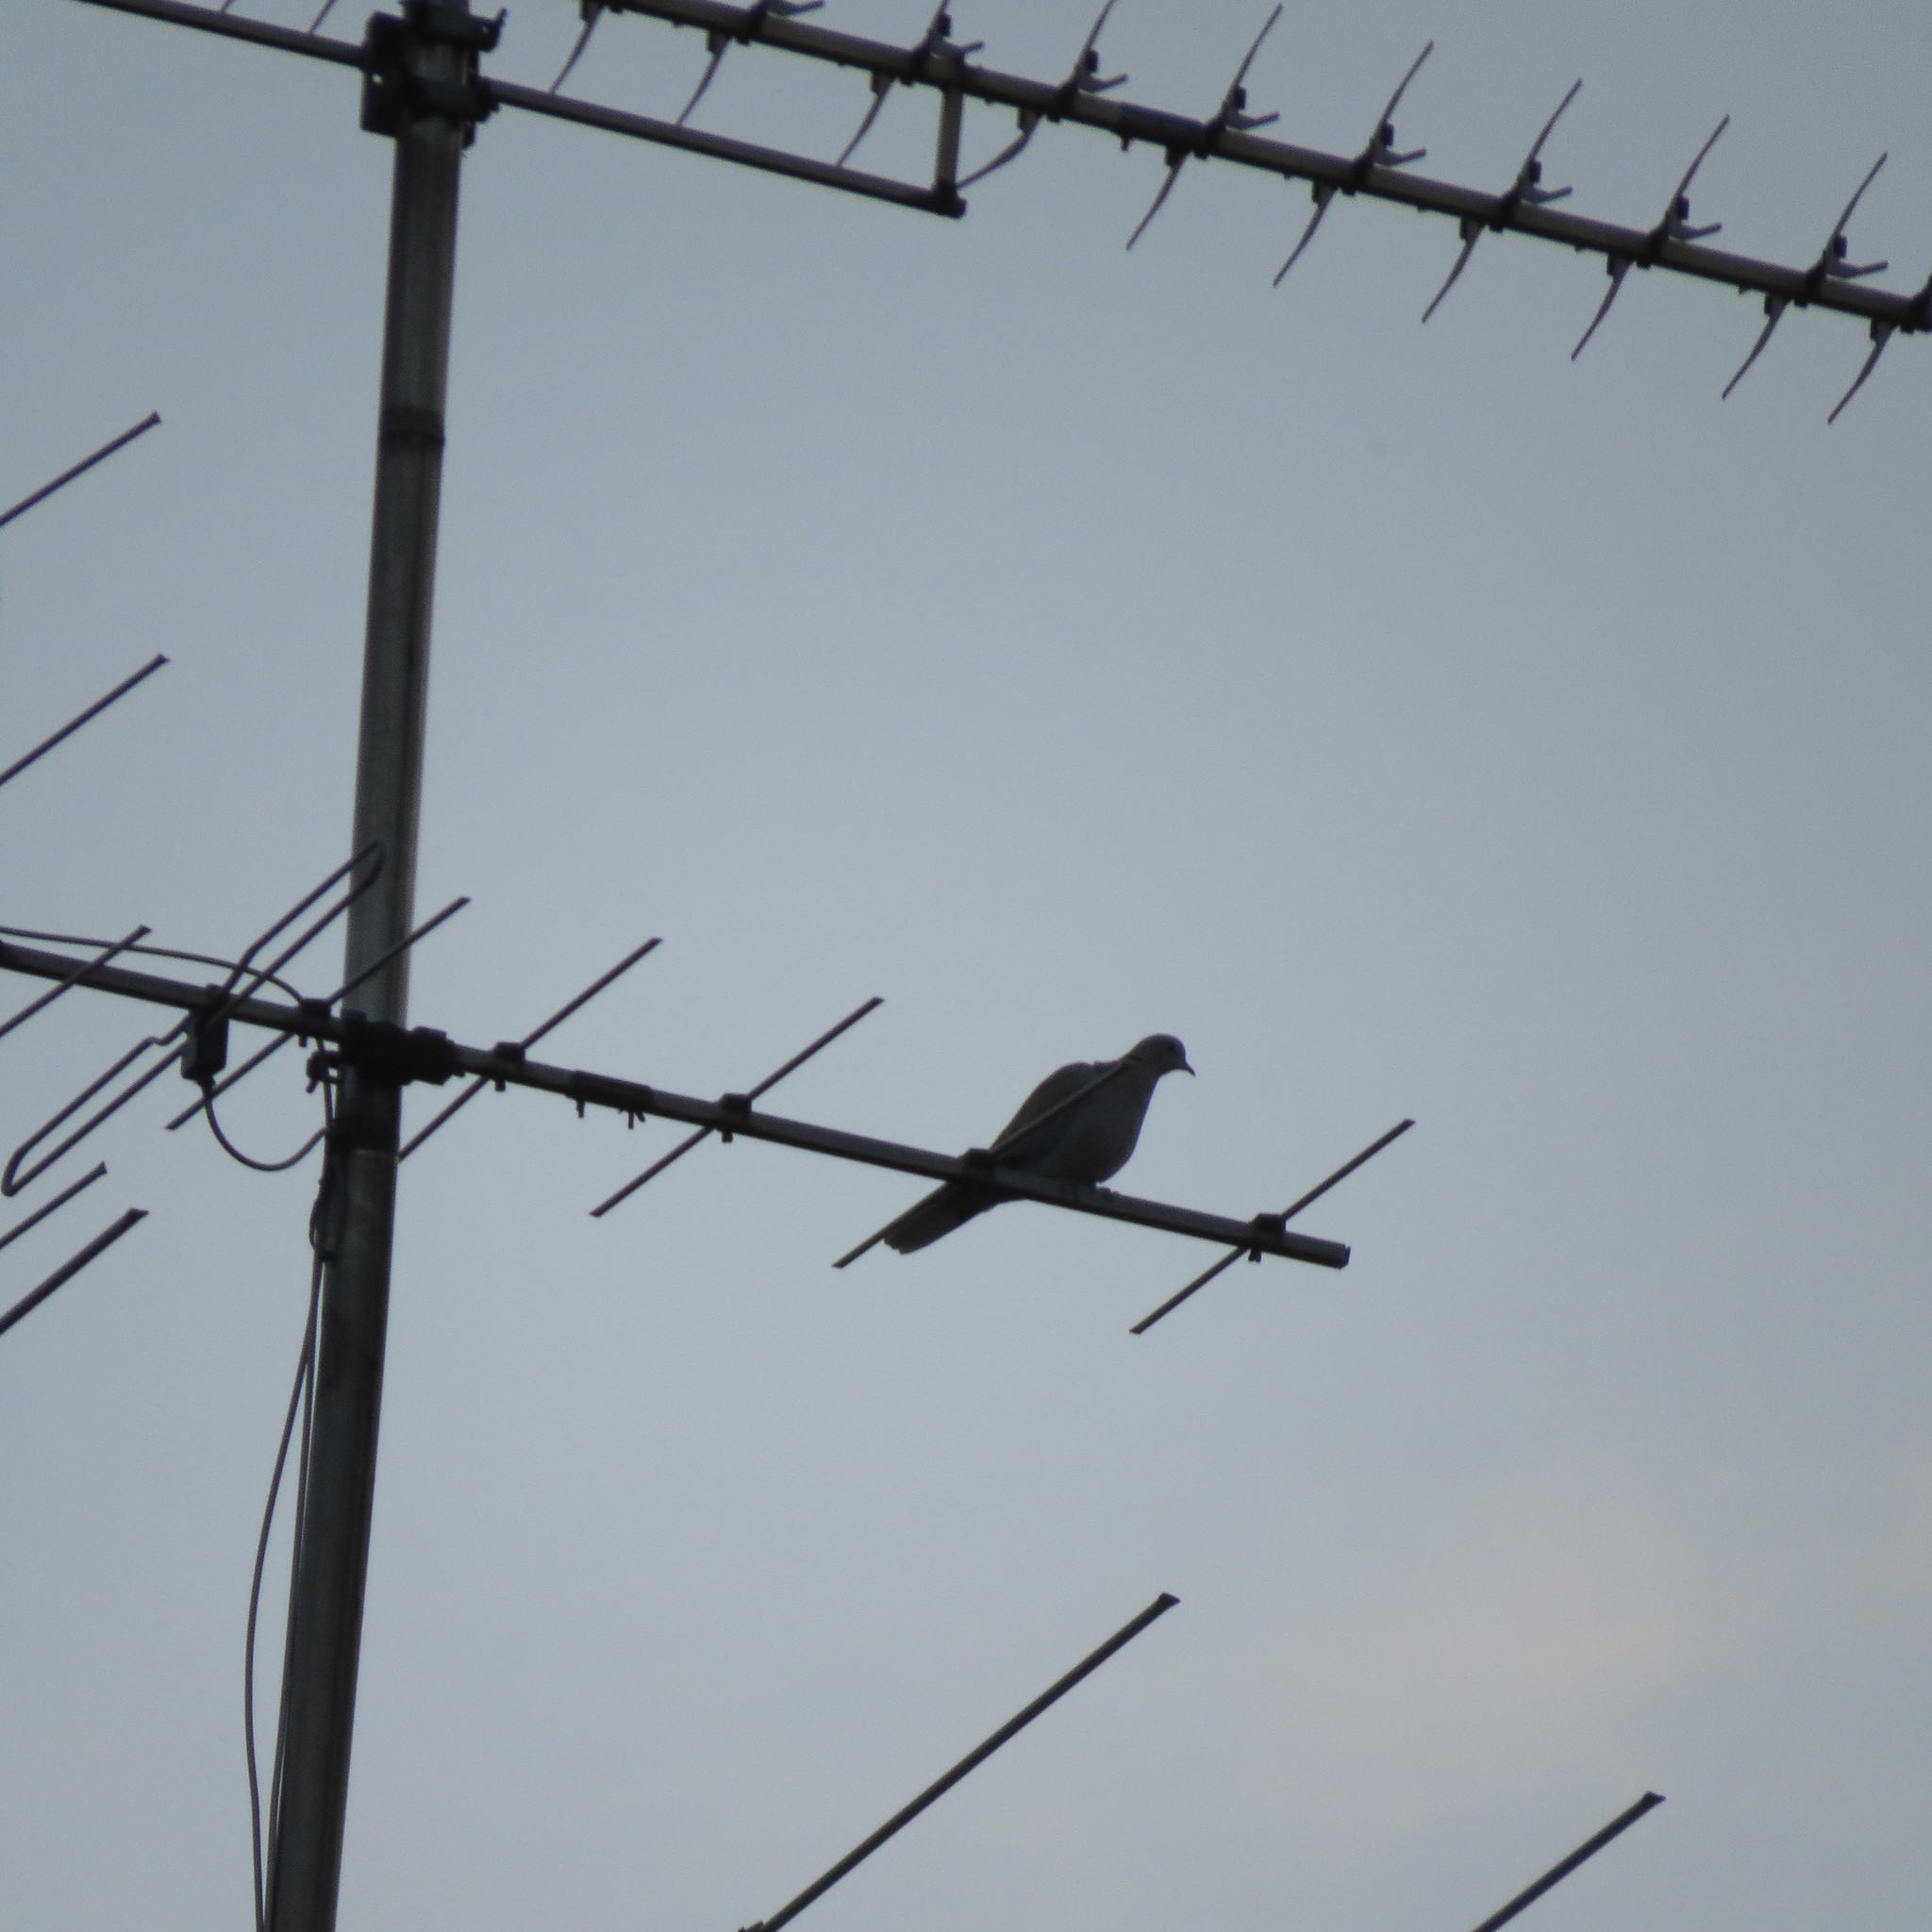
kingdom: Animalia
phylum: Chordata
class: Aves
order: Columbiformes
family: Columbidae
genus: Streptopelia
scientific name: Streptopelia decaocto
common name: Eurasian collared dove
